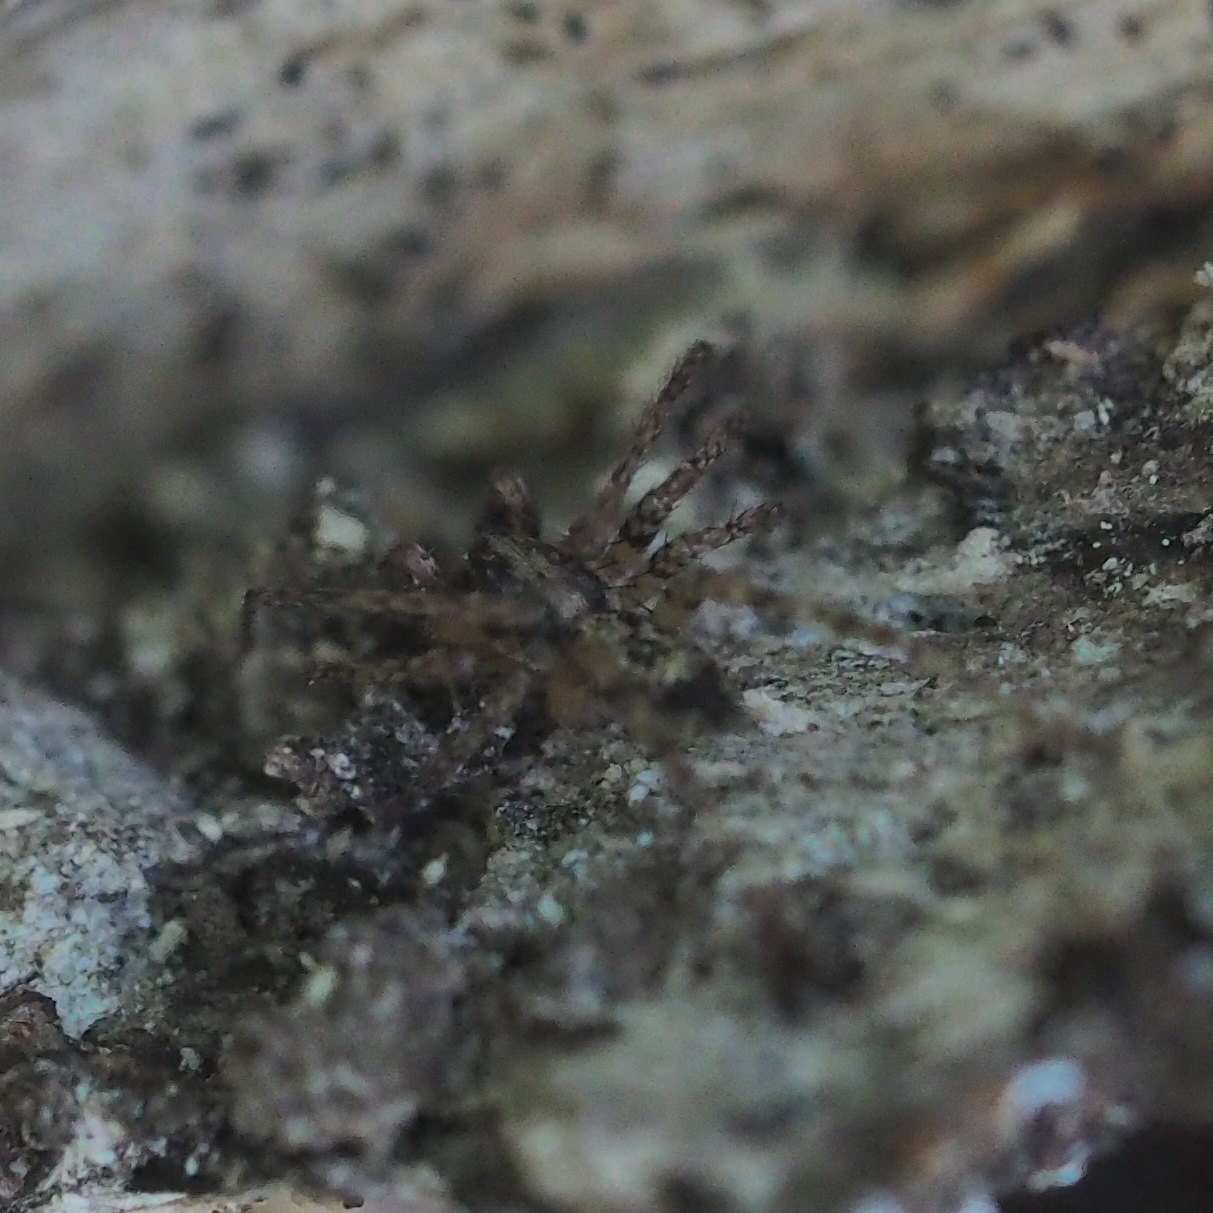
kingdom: Animalia
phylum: Arthropoda
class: Arachnida
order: Araneae
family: Anyphaenidae
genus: Anyphaena
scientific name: Anyphaena accentuata
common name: Buzzing spider
